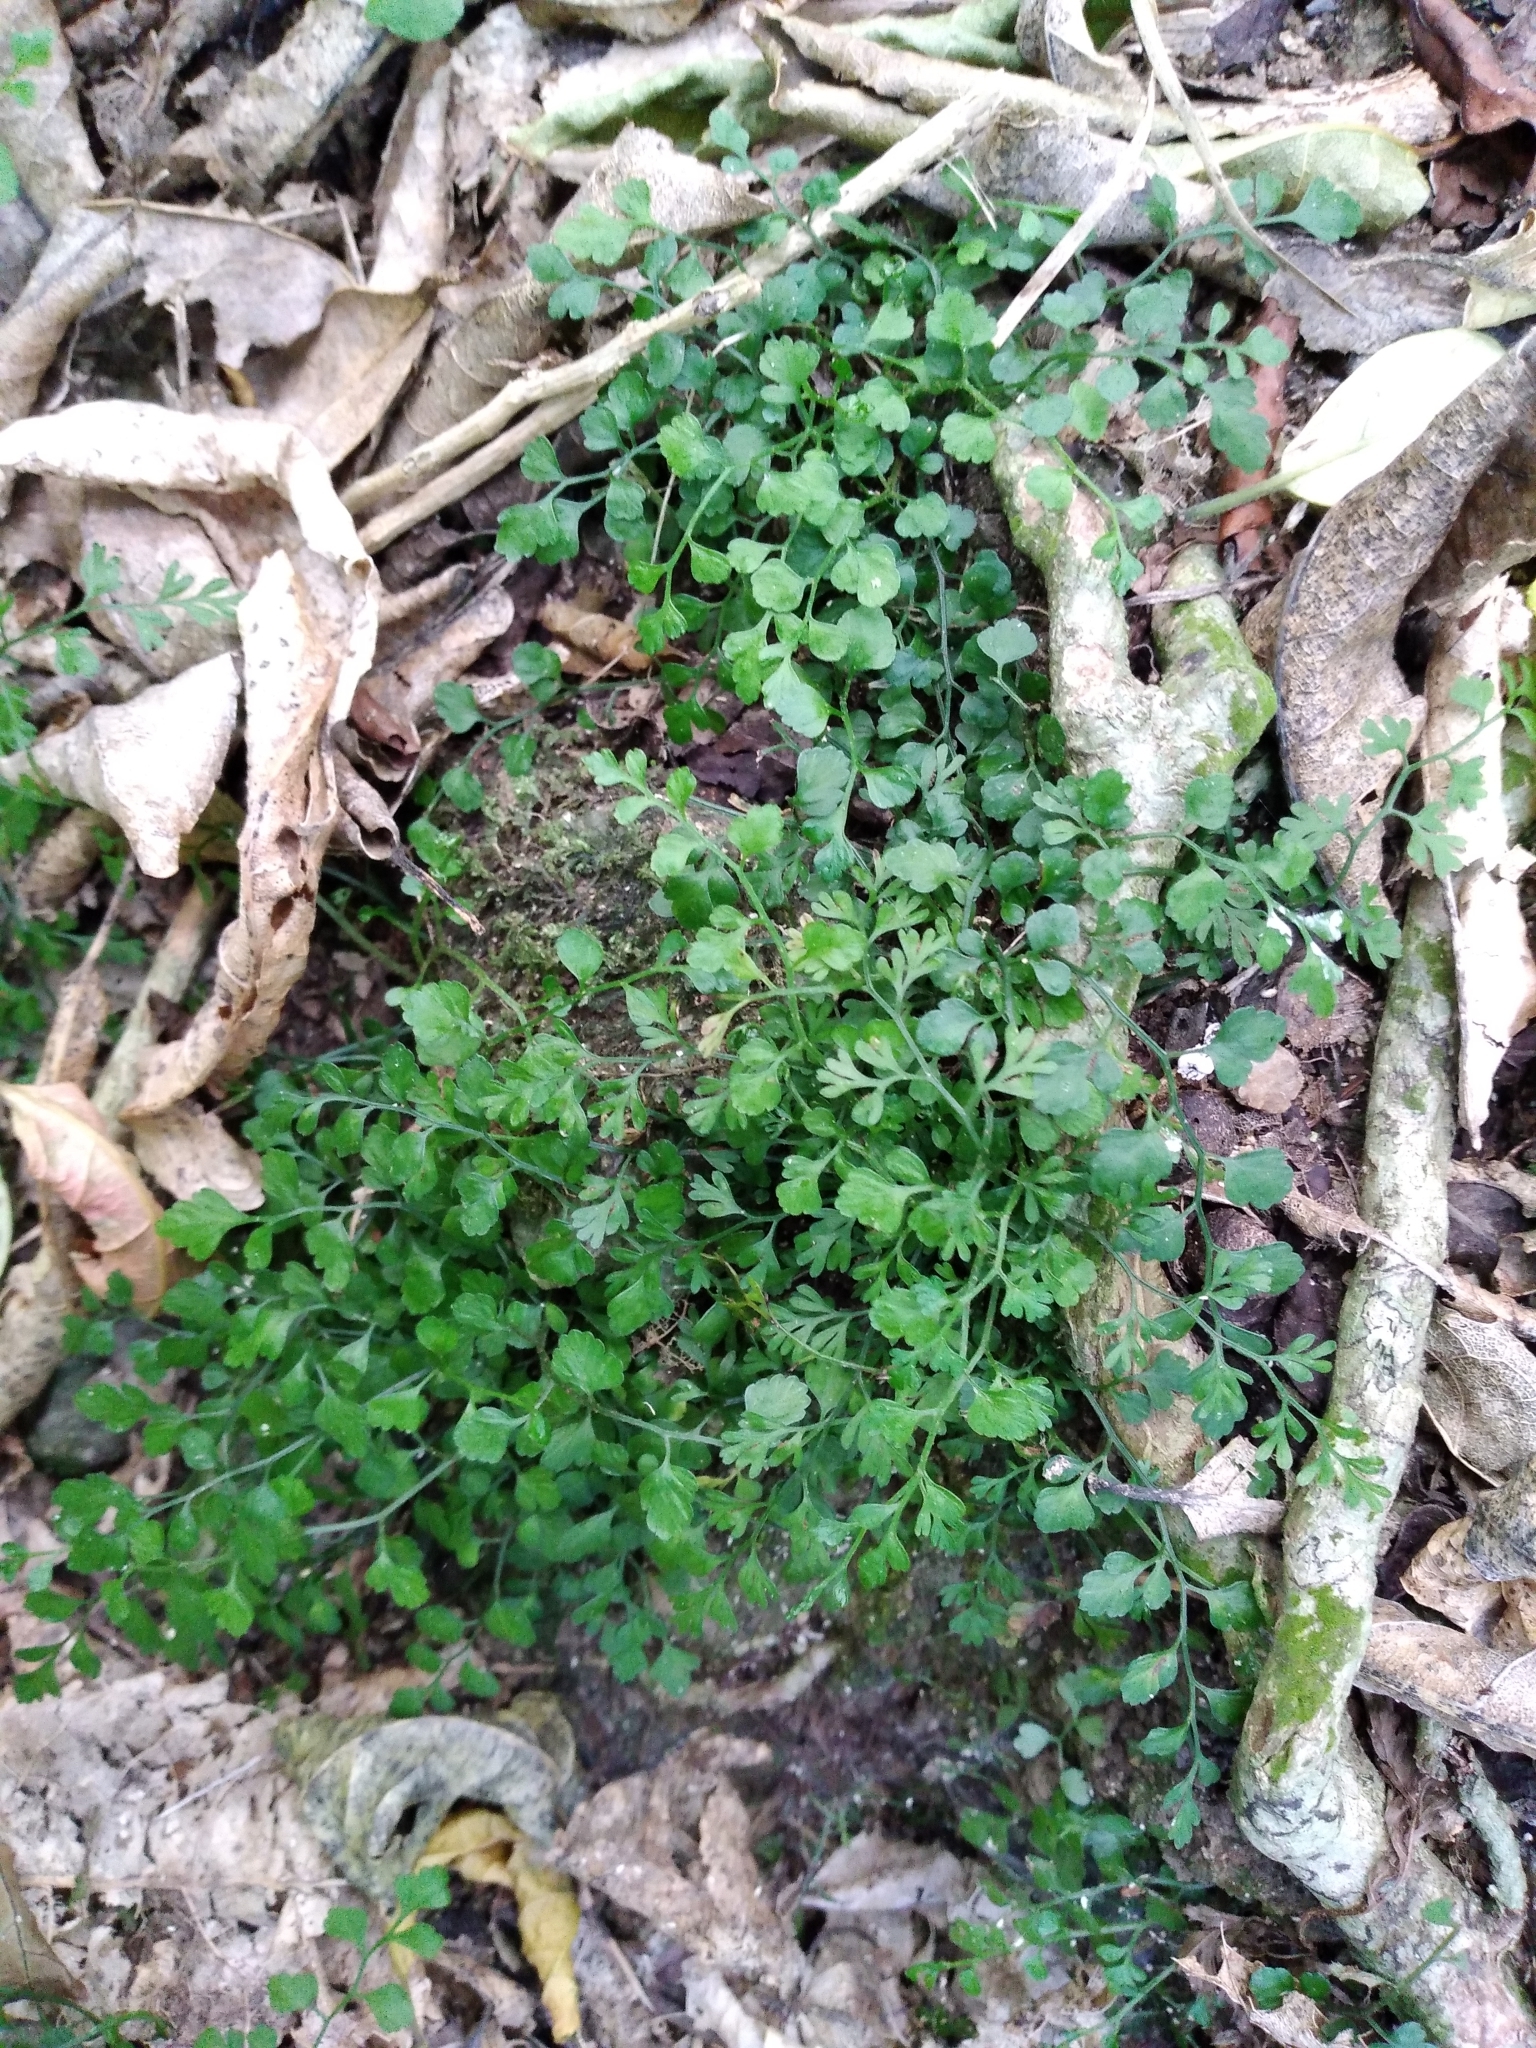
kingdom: Plantae
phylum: Tracheophyta
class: Polypodiopsida
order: Polypodiales
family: Aspleniaceae
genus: Asplenium
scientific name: Asplenium hookerianum
